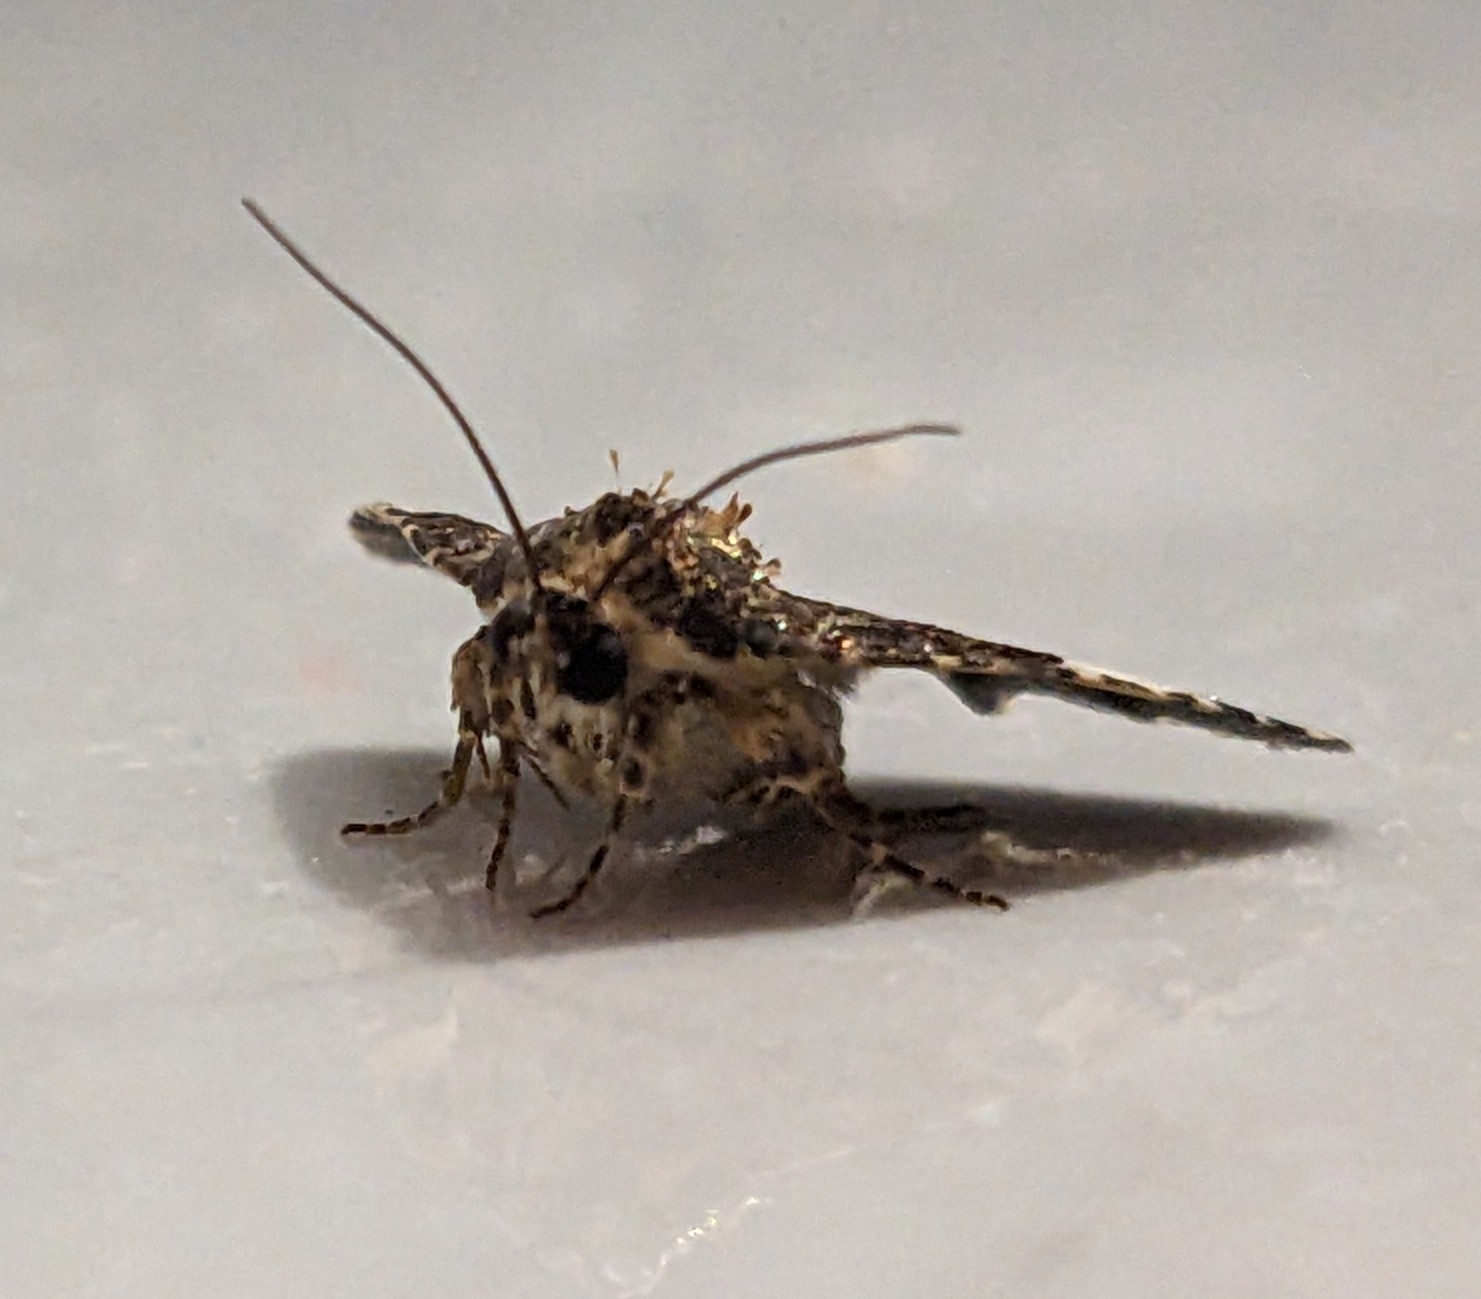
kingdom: Animalia
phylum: Arthropoda
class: Insecta
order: Lepidoptera
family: Erebidae
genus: Tyta
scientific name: Tyta luctuosa
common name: Four-spotted
